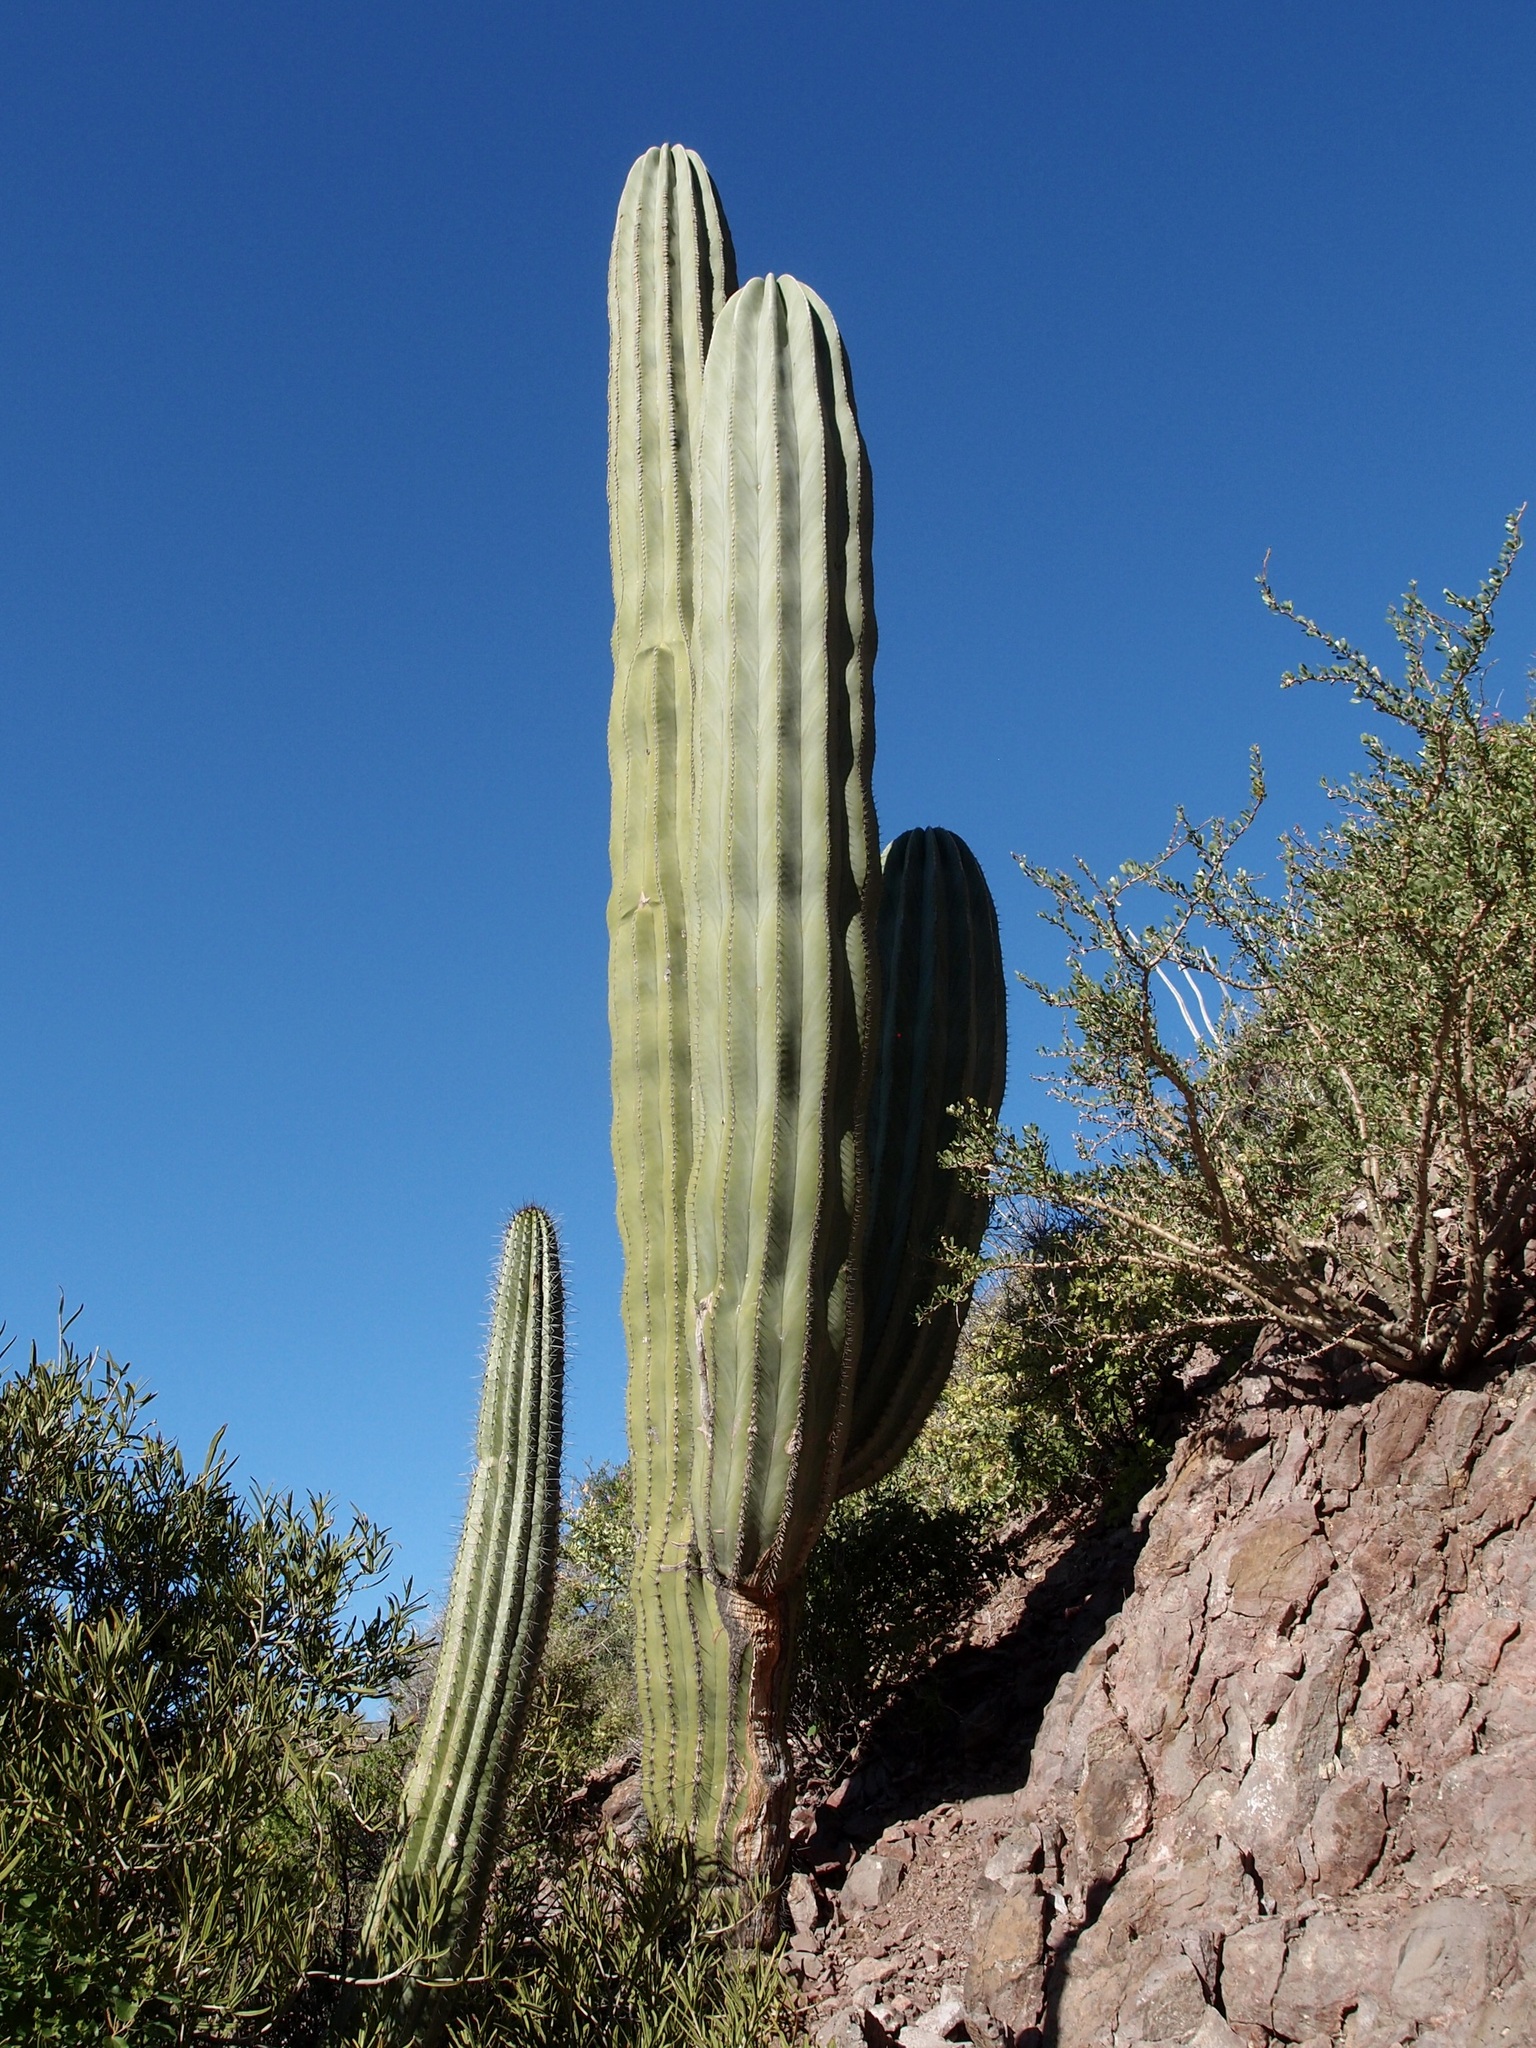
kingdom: Plantae
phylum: Tracheophyta
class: Magnoliopsida
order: Caryophyllales
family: Cactaceae
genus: Pachycereus
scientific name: Pachycereus pringlei
